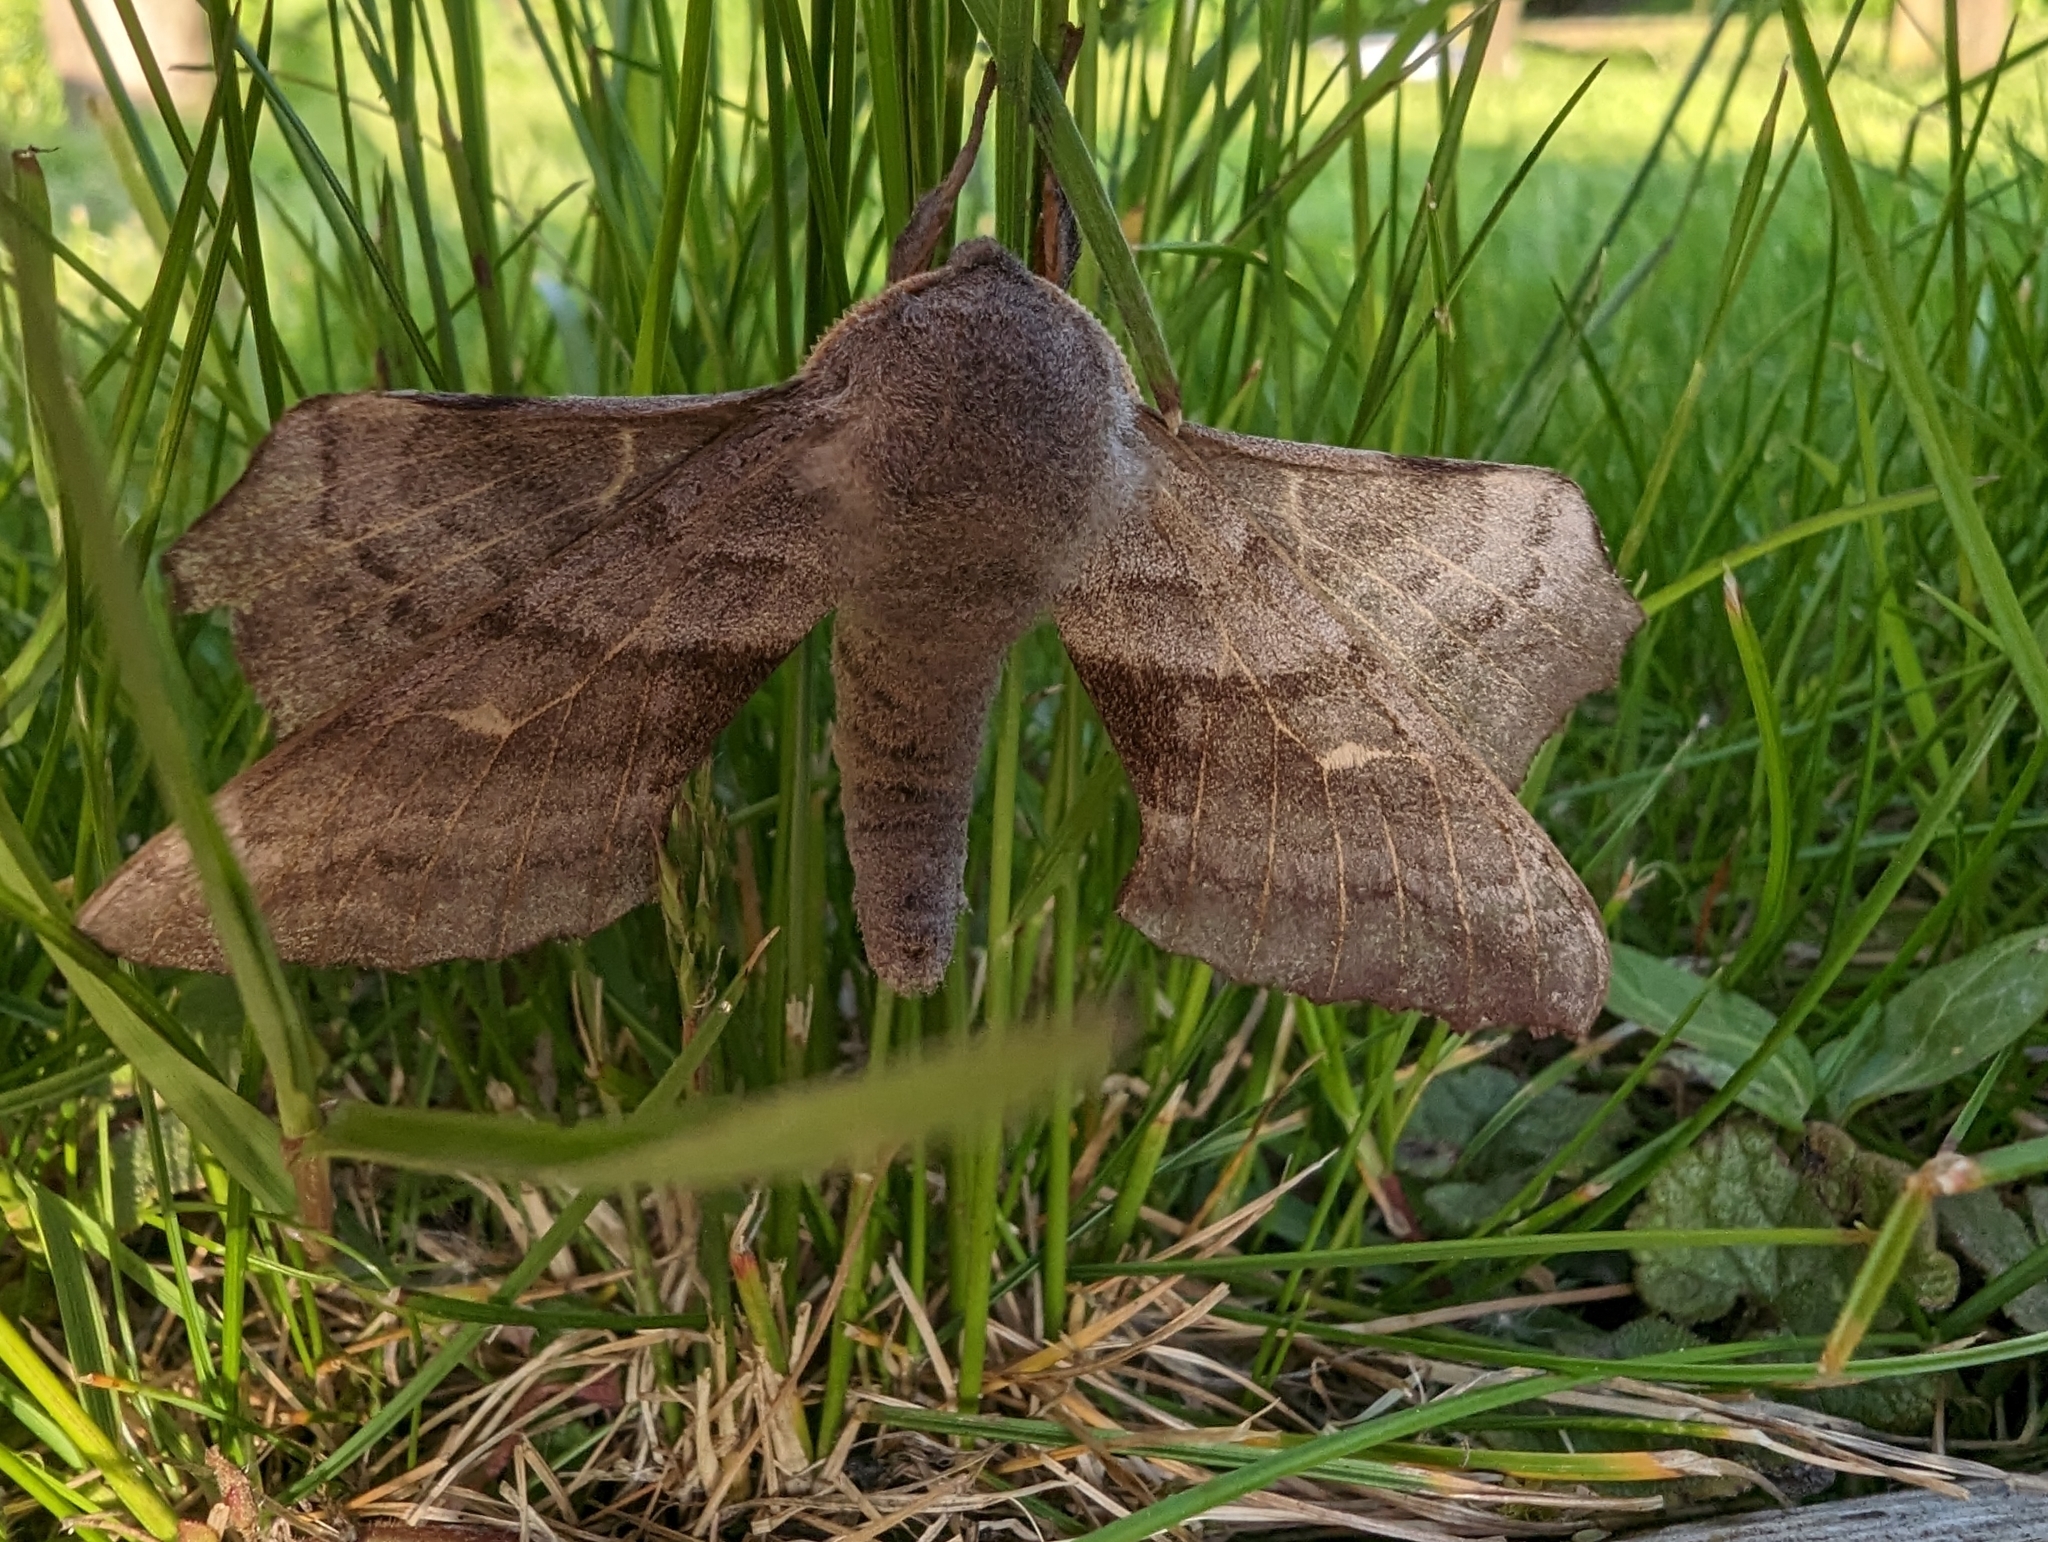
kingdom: Animalia
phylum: Arthropoda
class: Insecta
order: Lepidoptera
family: Sphingidae
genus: Laothoe
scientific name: Laothoe populi
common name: Poplar hawk-moth
